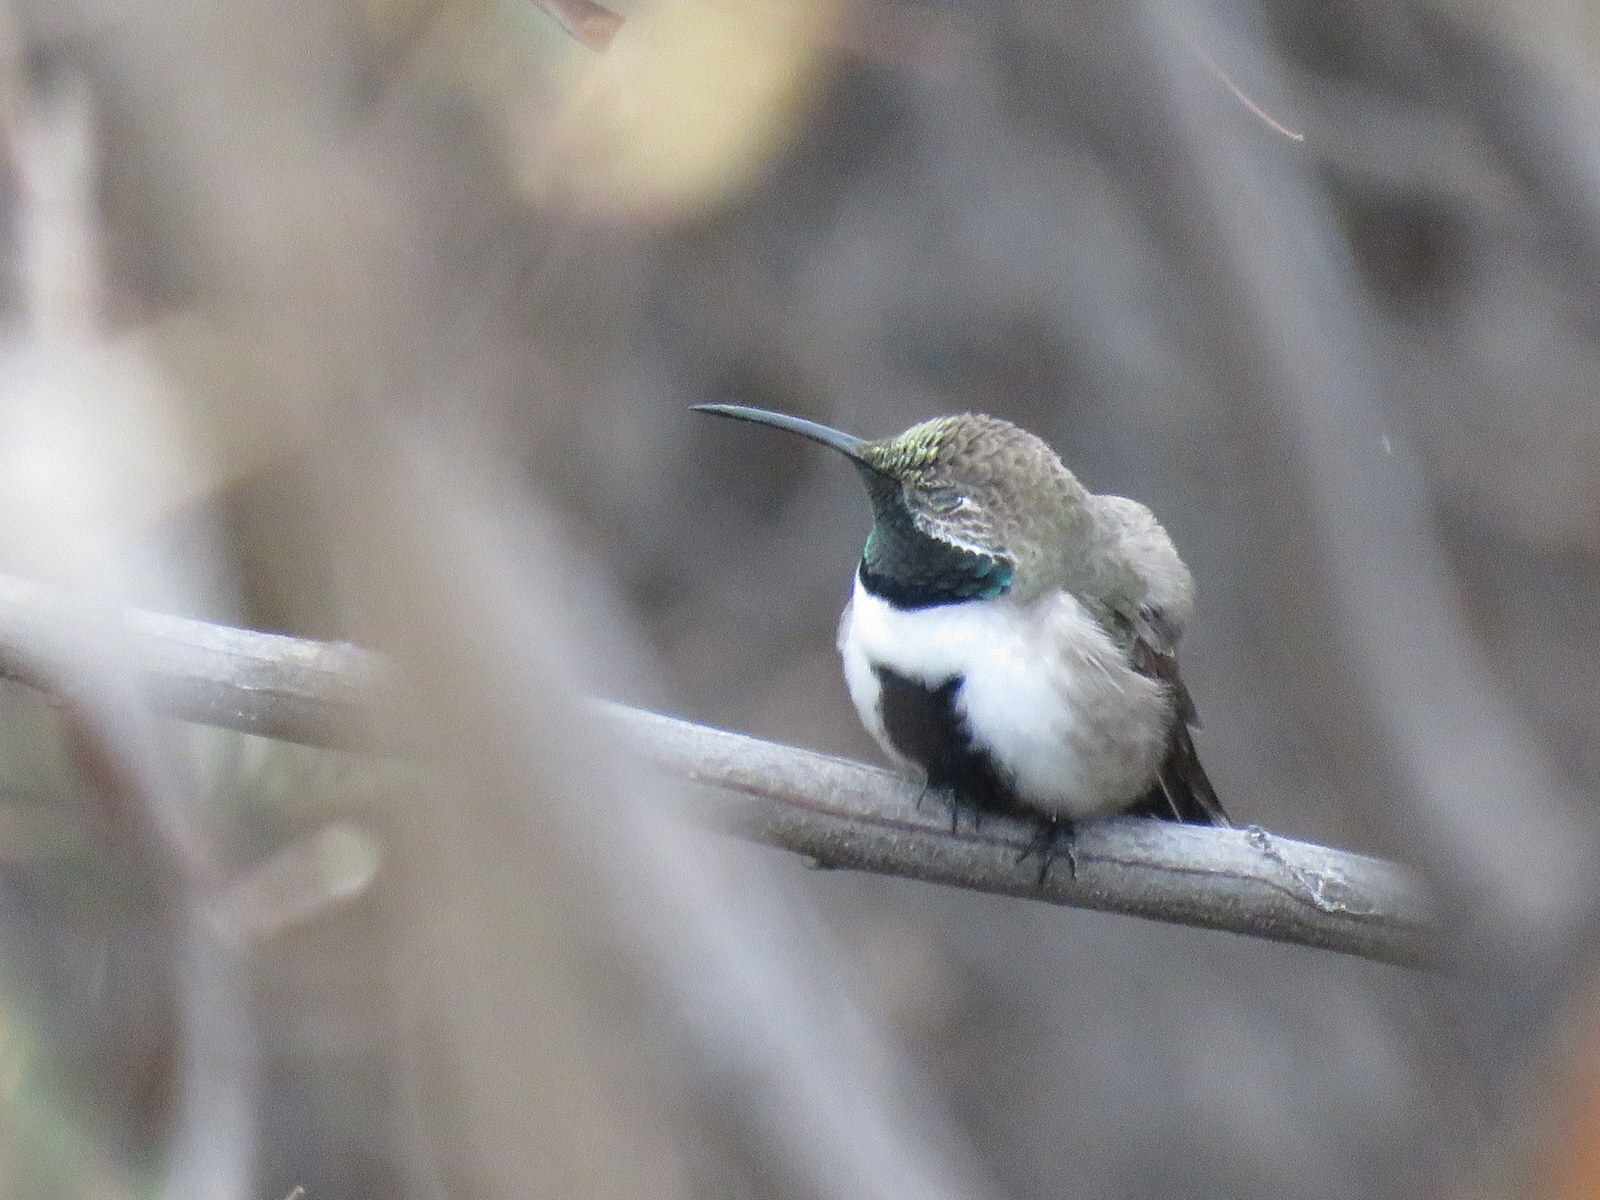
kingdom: Animalia
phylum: Chordata
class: Aves
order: Apodiformes
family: Trochilidae
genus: Oreotrochilus
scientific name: Oreotrochilus leucopleurus
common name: White-sided hillstar
